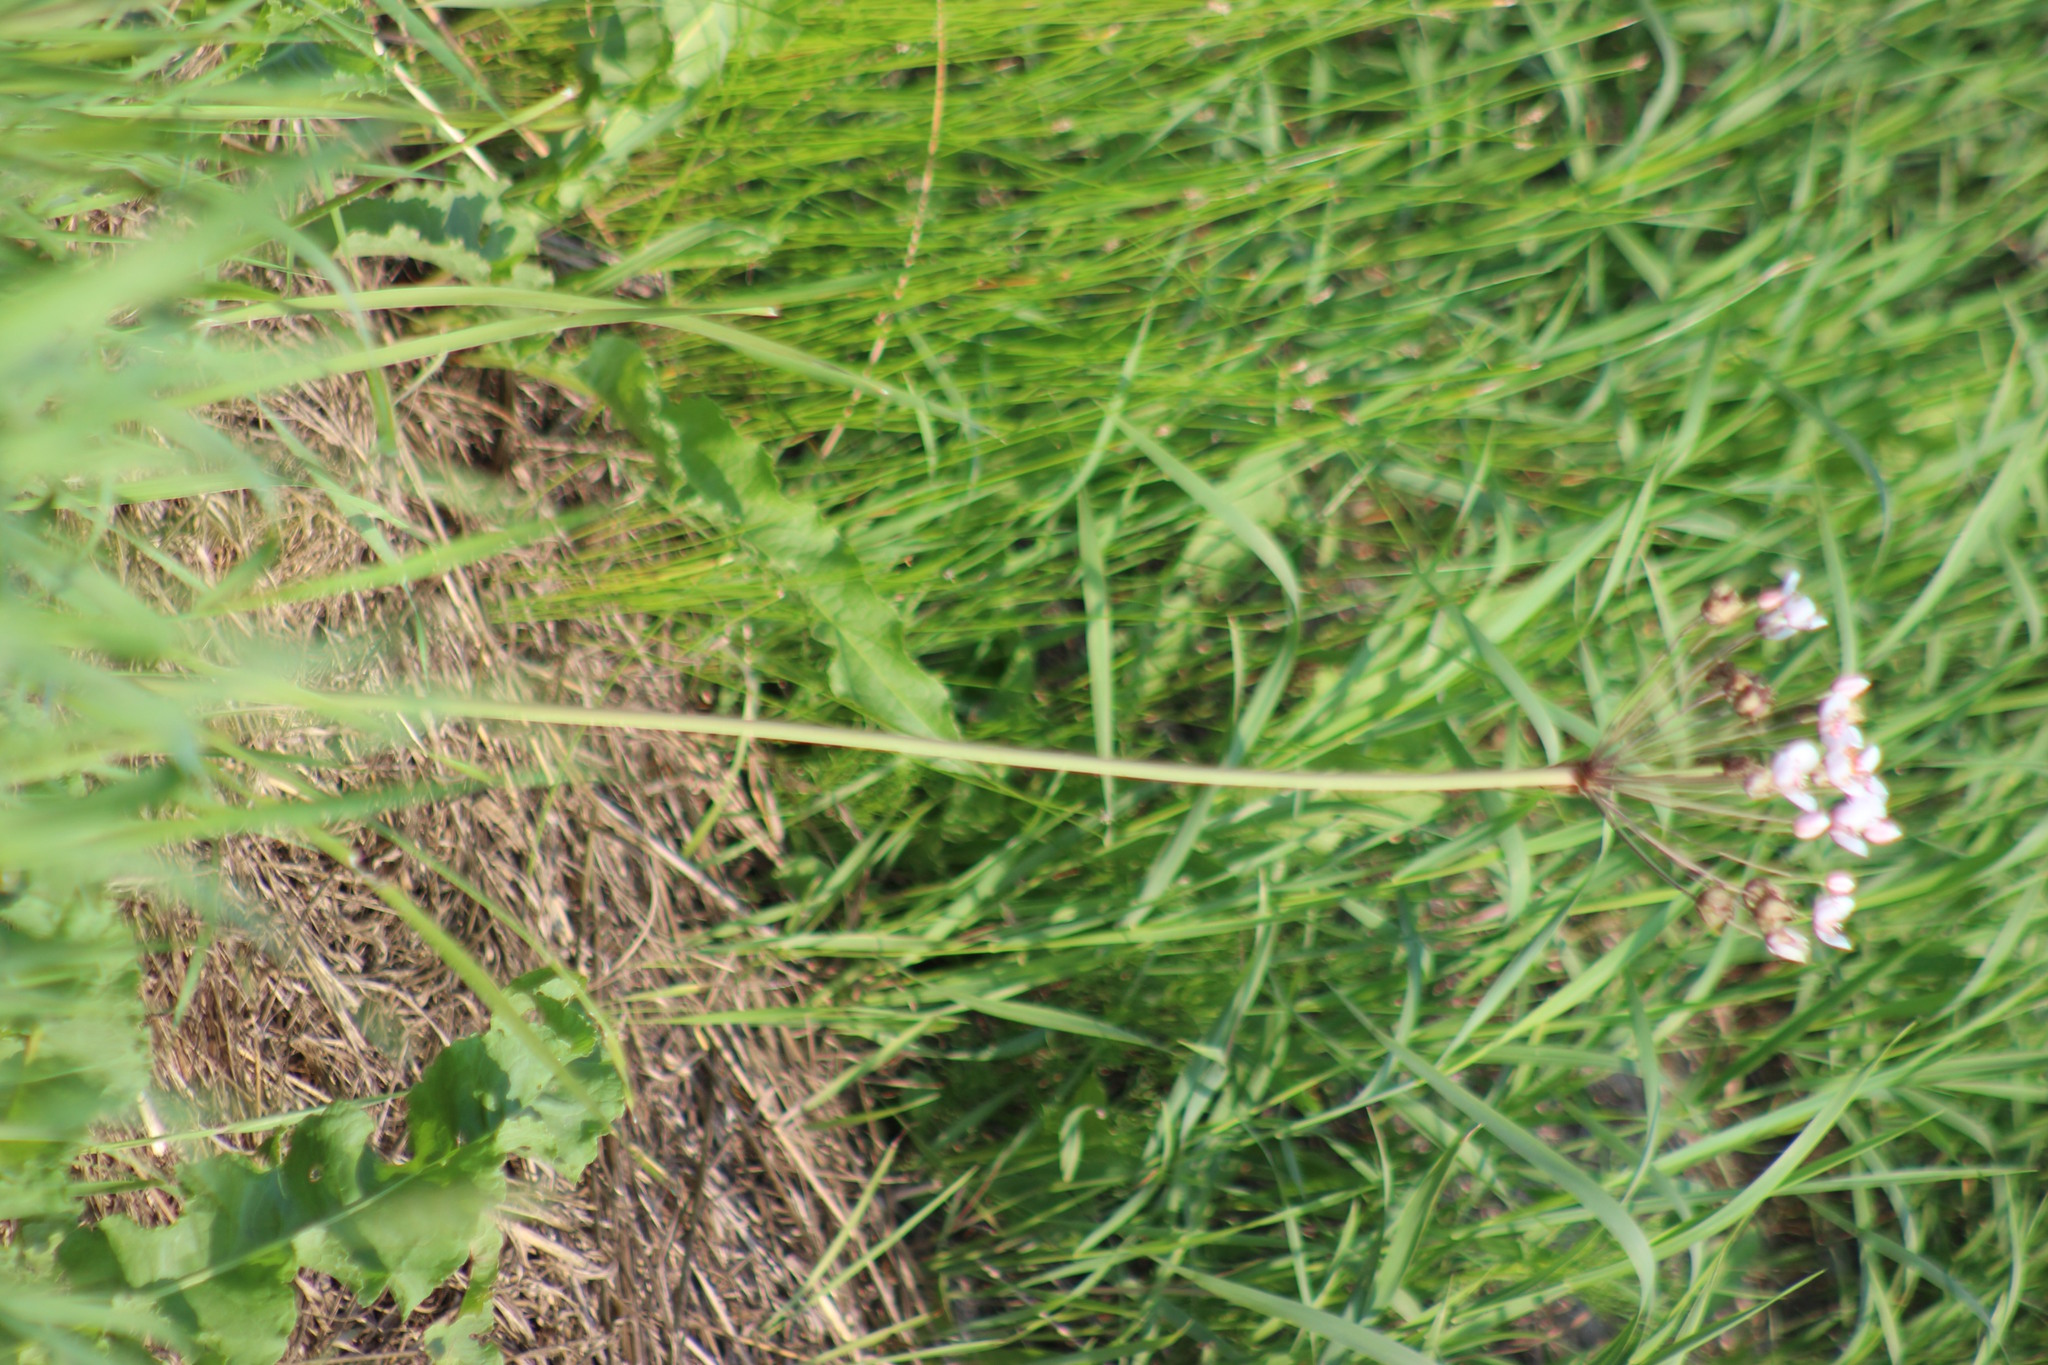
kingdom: Plantae
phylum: Tracheophyta
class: Liliopsida
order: Alismatales
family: Butomaceae
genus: Butomus
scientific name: Butomus umbellatus
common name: Flowering-rush
